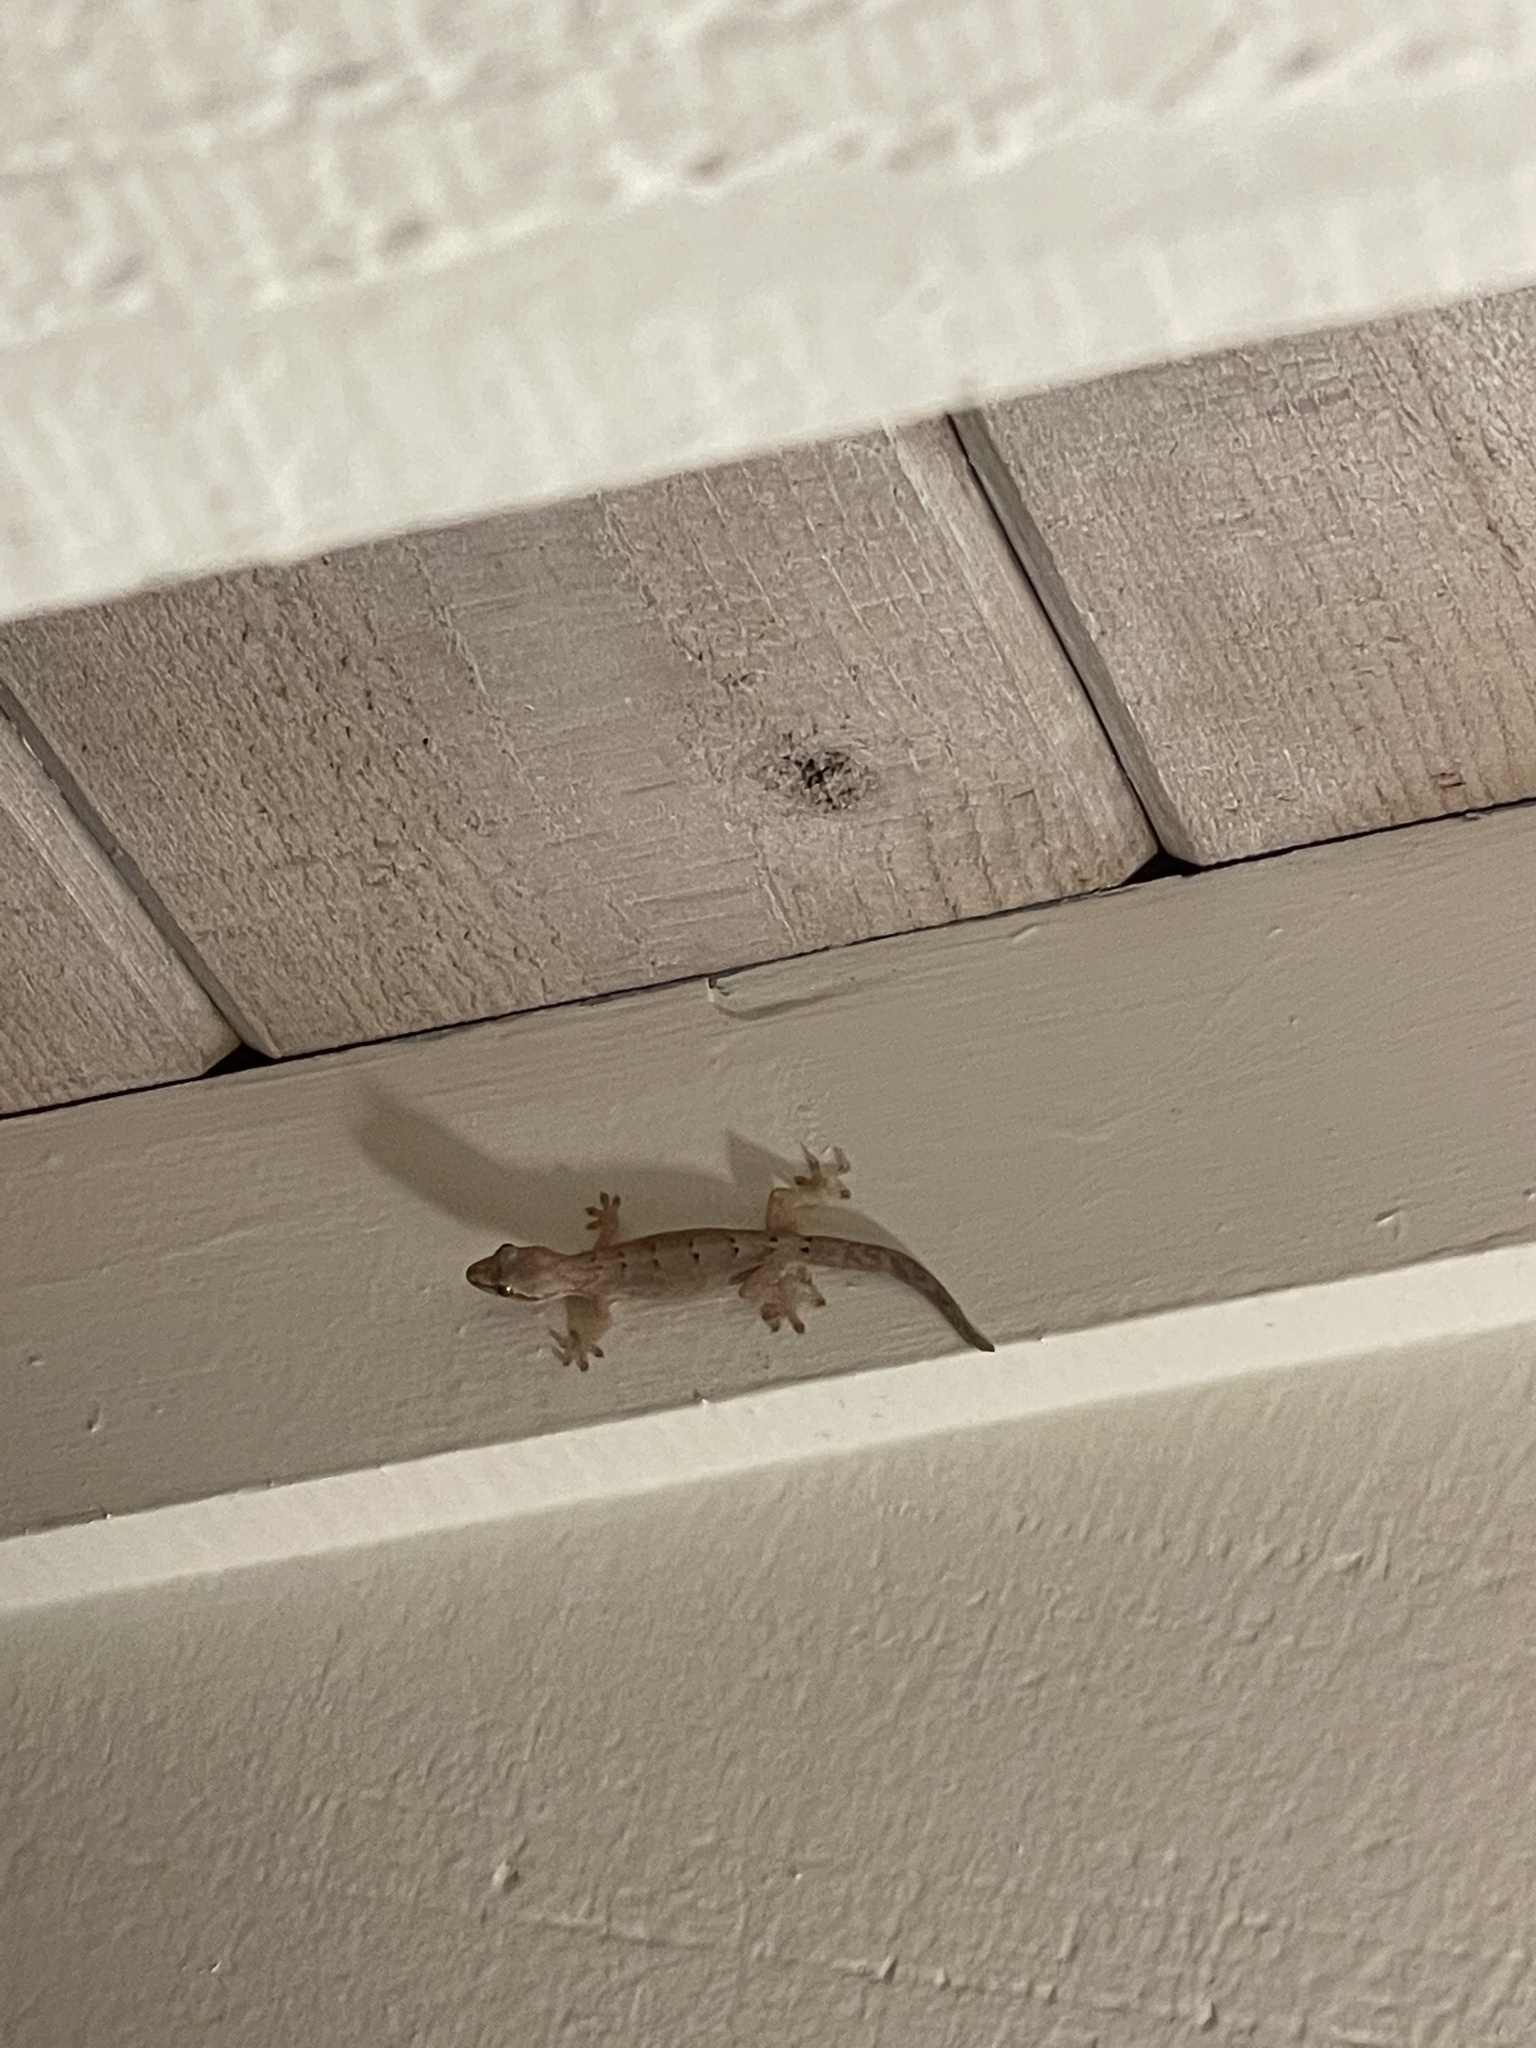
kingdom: Animalia
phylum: Chordata
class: Squamata
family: Gekkonidae
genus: Lepidodactylus
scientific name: Lepidodactylus lugubris
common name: Mourning gecko
